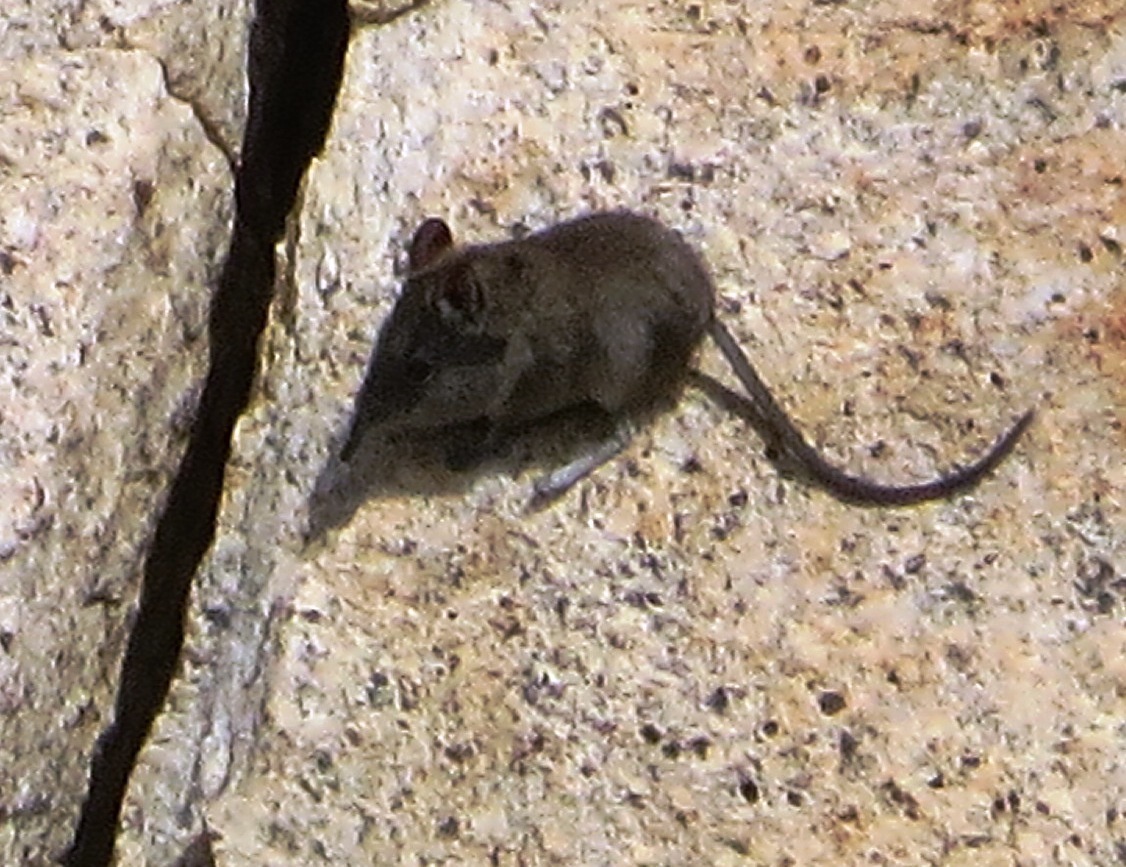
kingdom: Animalia
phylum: Chordata
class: Mammalia
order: Macroscelidea
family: Macroscelididae
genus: Elephantulus
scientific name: Elephantulus edwardii
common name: Cape elephant shrew
